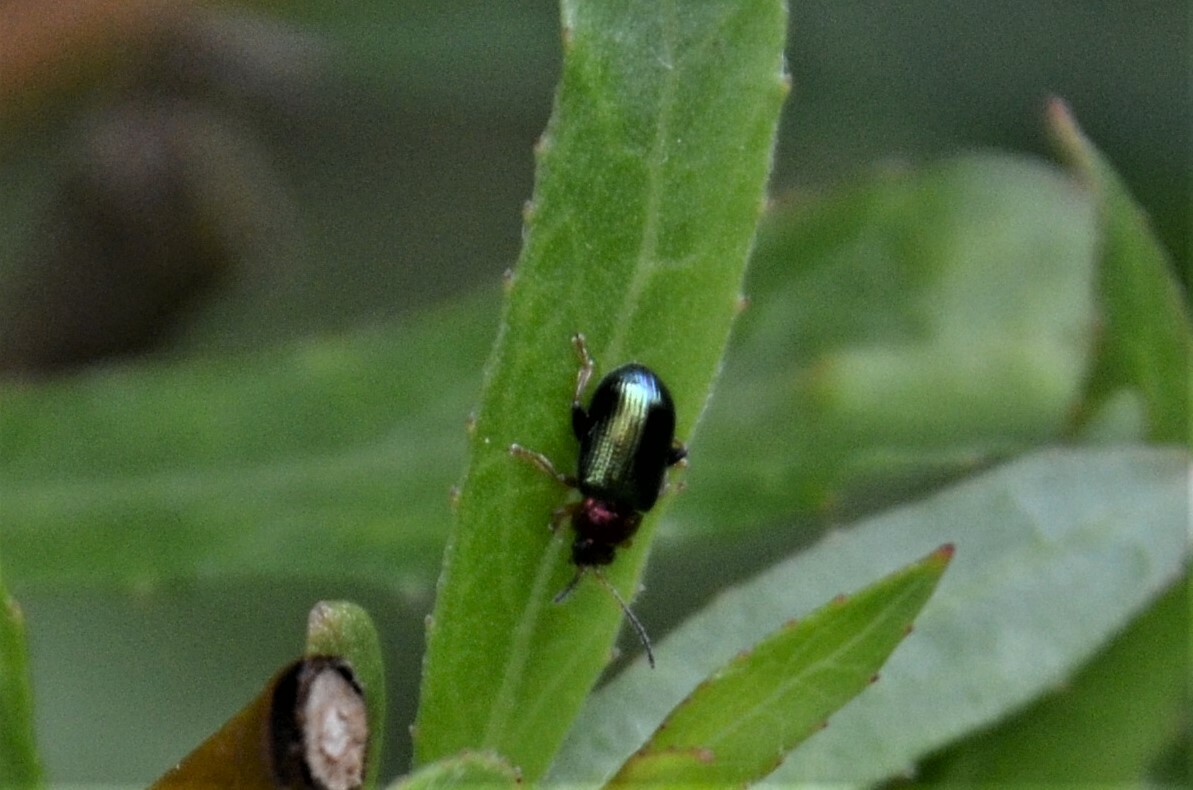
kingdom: Animalia
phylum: Arthropoda
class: Insecta
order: Coleoptera
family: Chrysomelidae
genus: Crepidodera
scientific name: Crepidodera aurata
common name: Willow flea beetle
